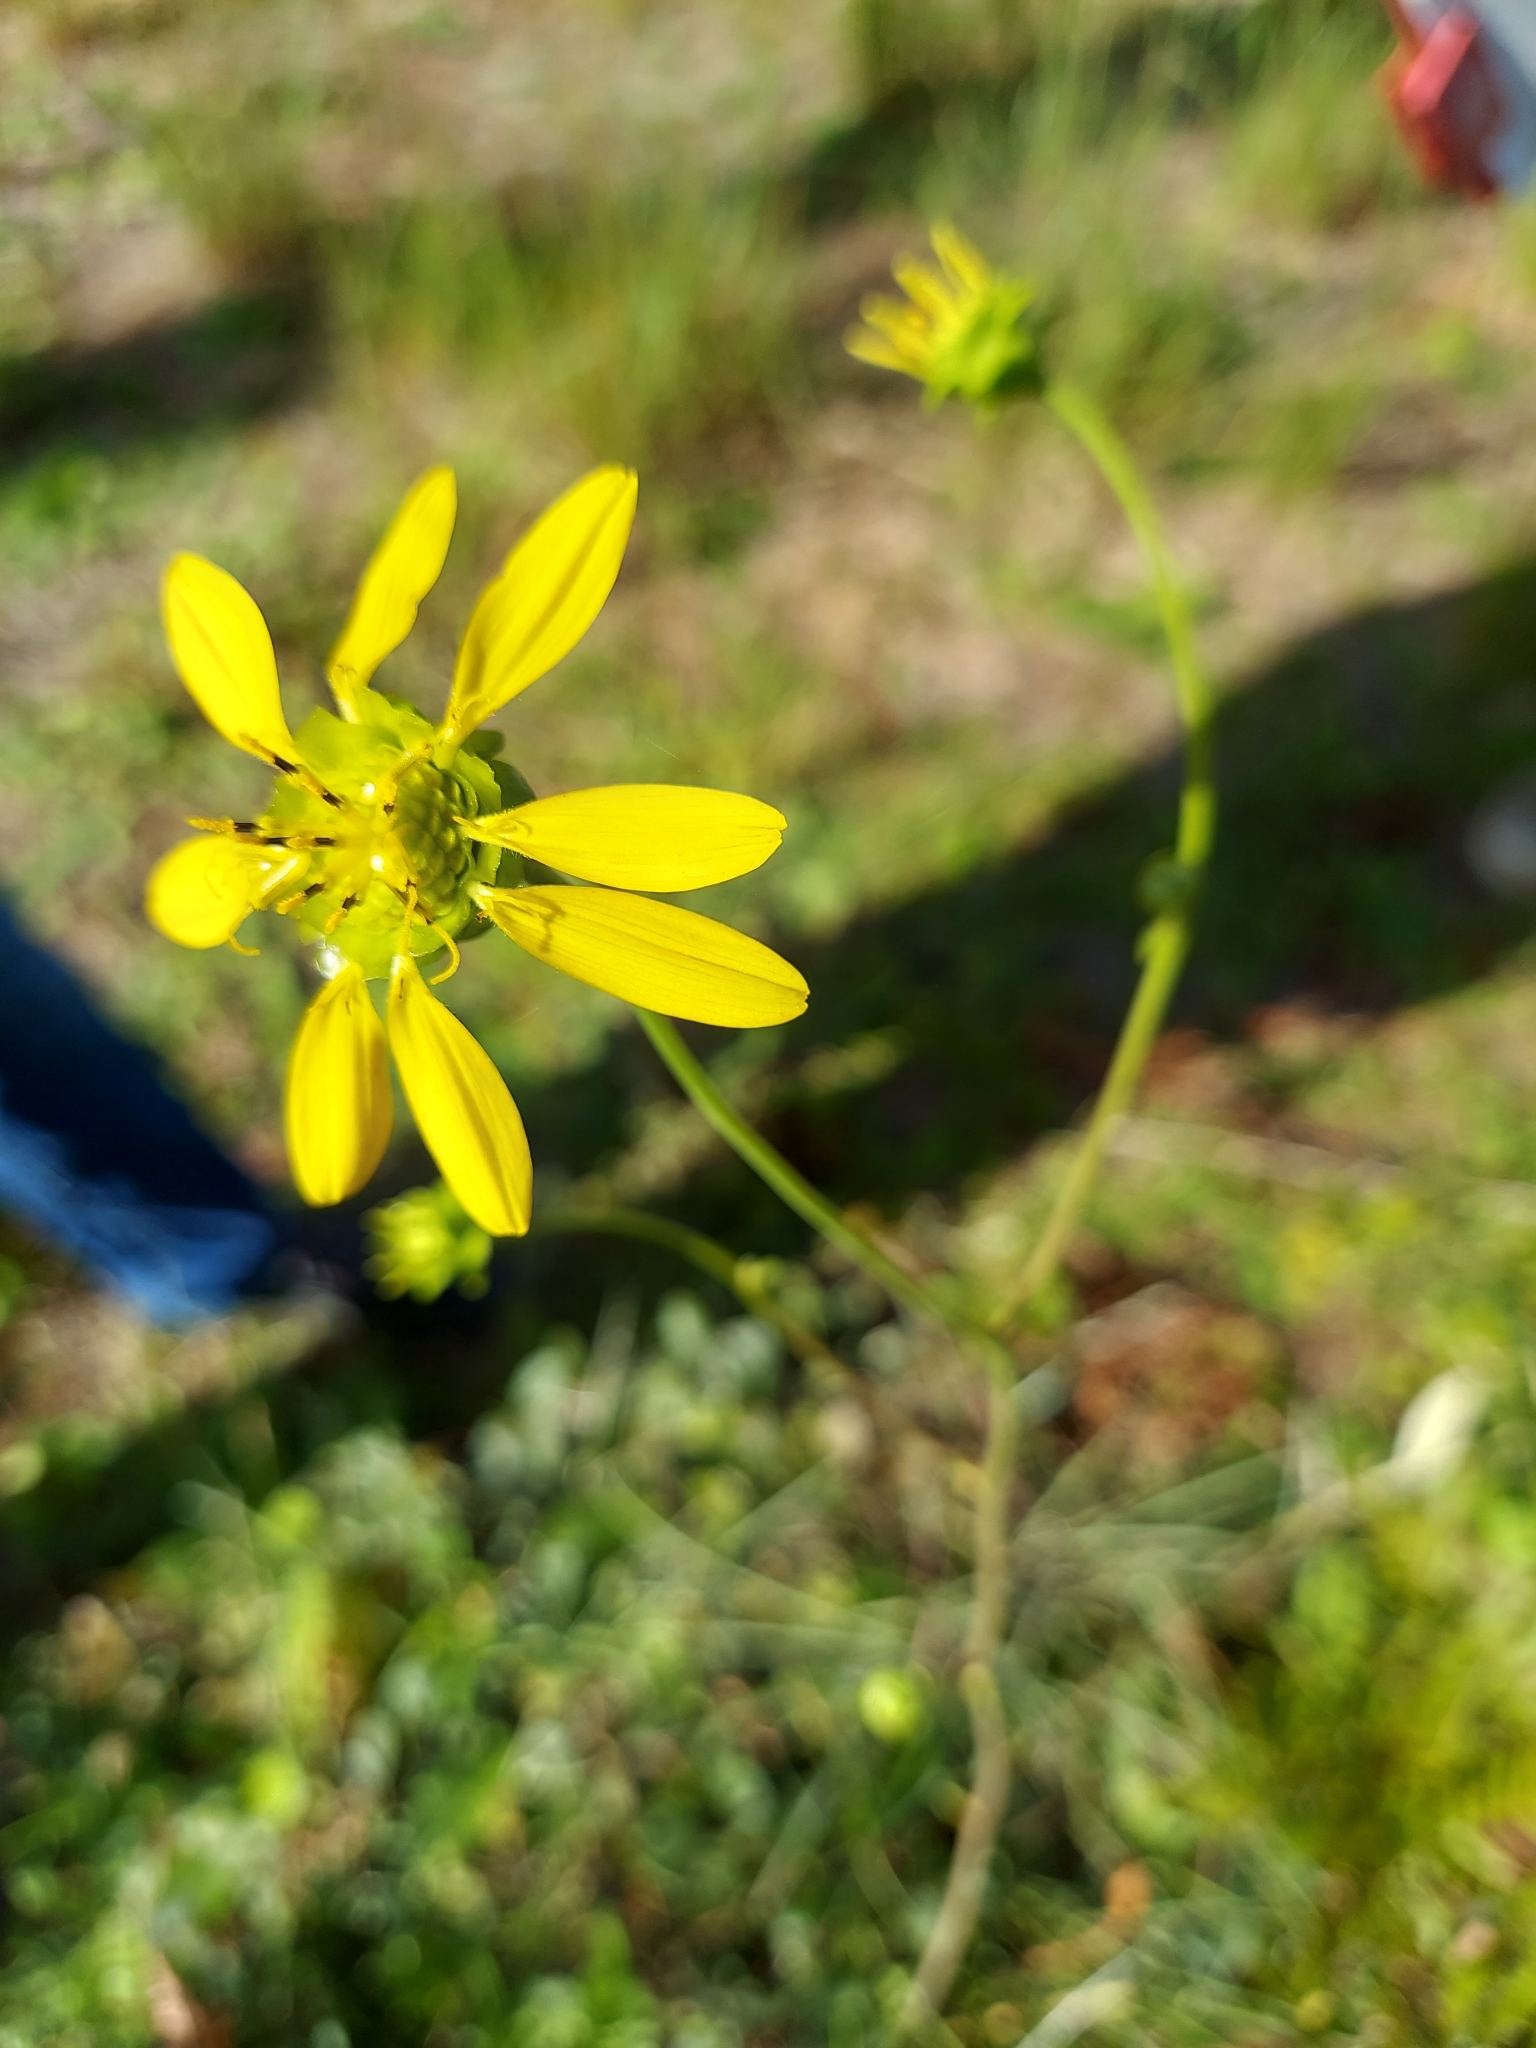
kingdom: Plantae
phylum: Tracheophyta
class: Magnoliopsida
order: Asterales
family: Asteraceae
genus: Silphium
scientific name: Silphium compositum
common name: Lesser basal-leaf rosinweed
